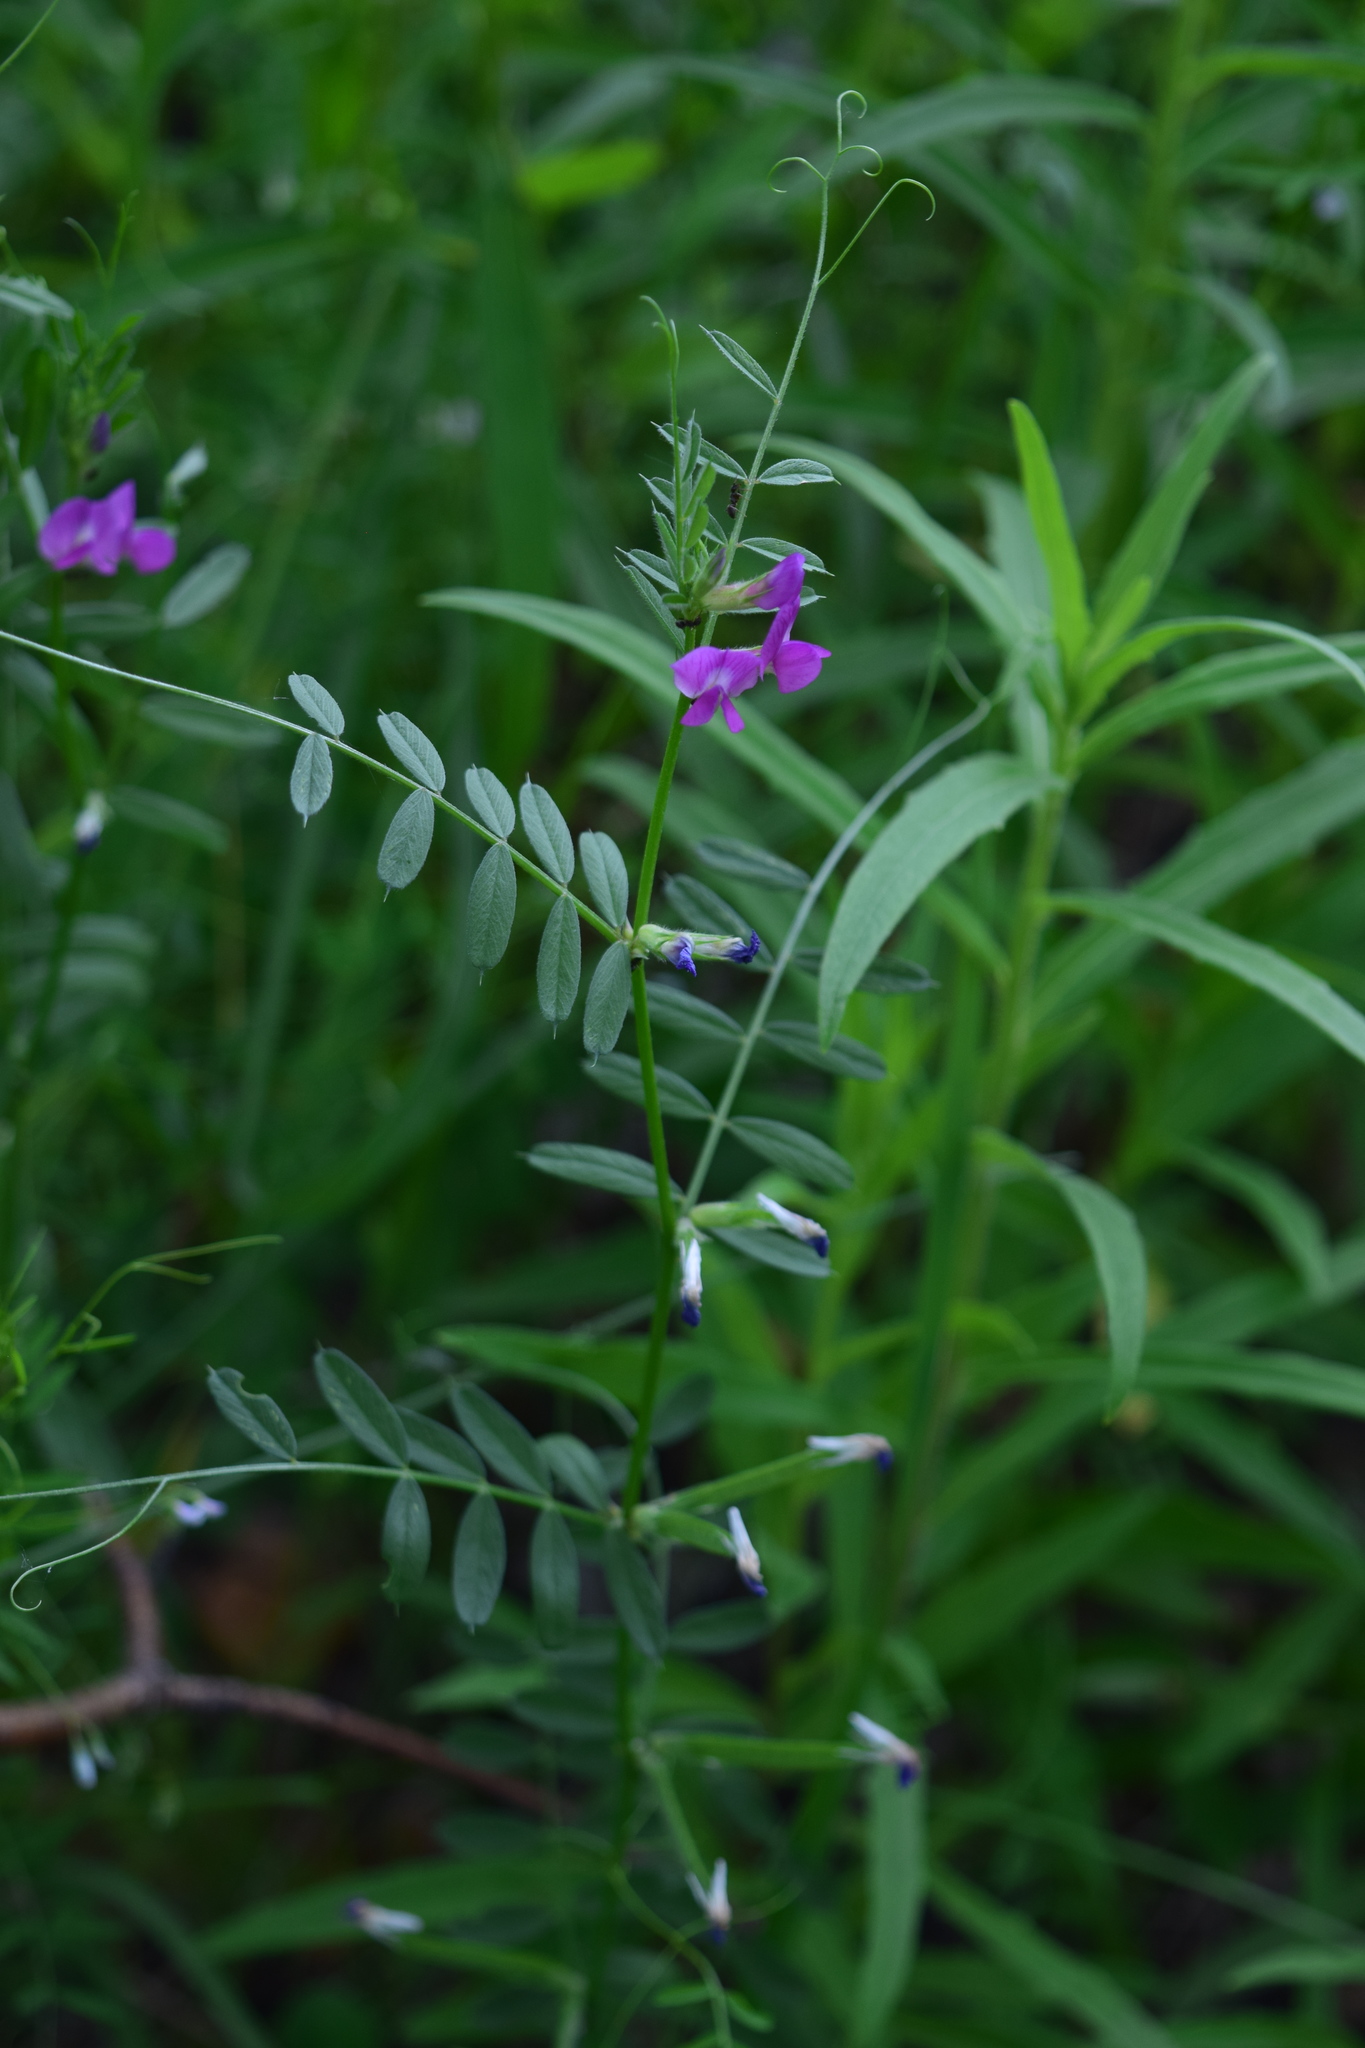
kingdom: Plantae
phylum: Tracheophyta
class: Magnoliopsida
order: Fabales
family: Fabaceae
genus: Vicia
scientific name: Vicia sativa
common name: Garden vetch
